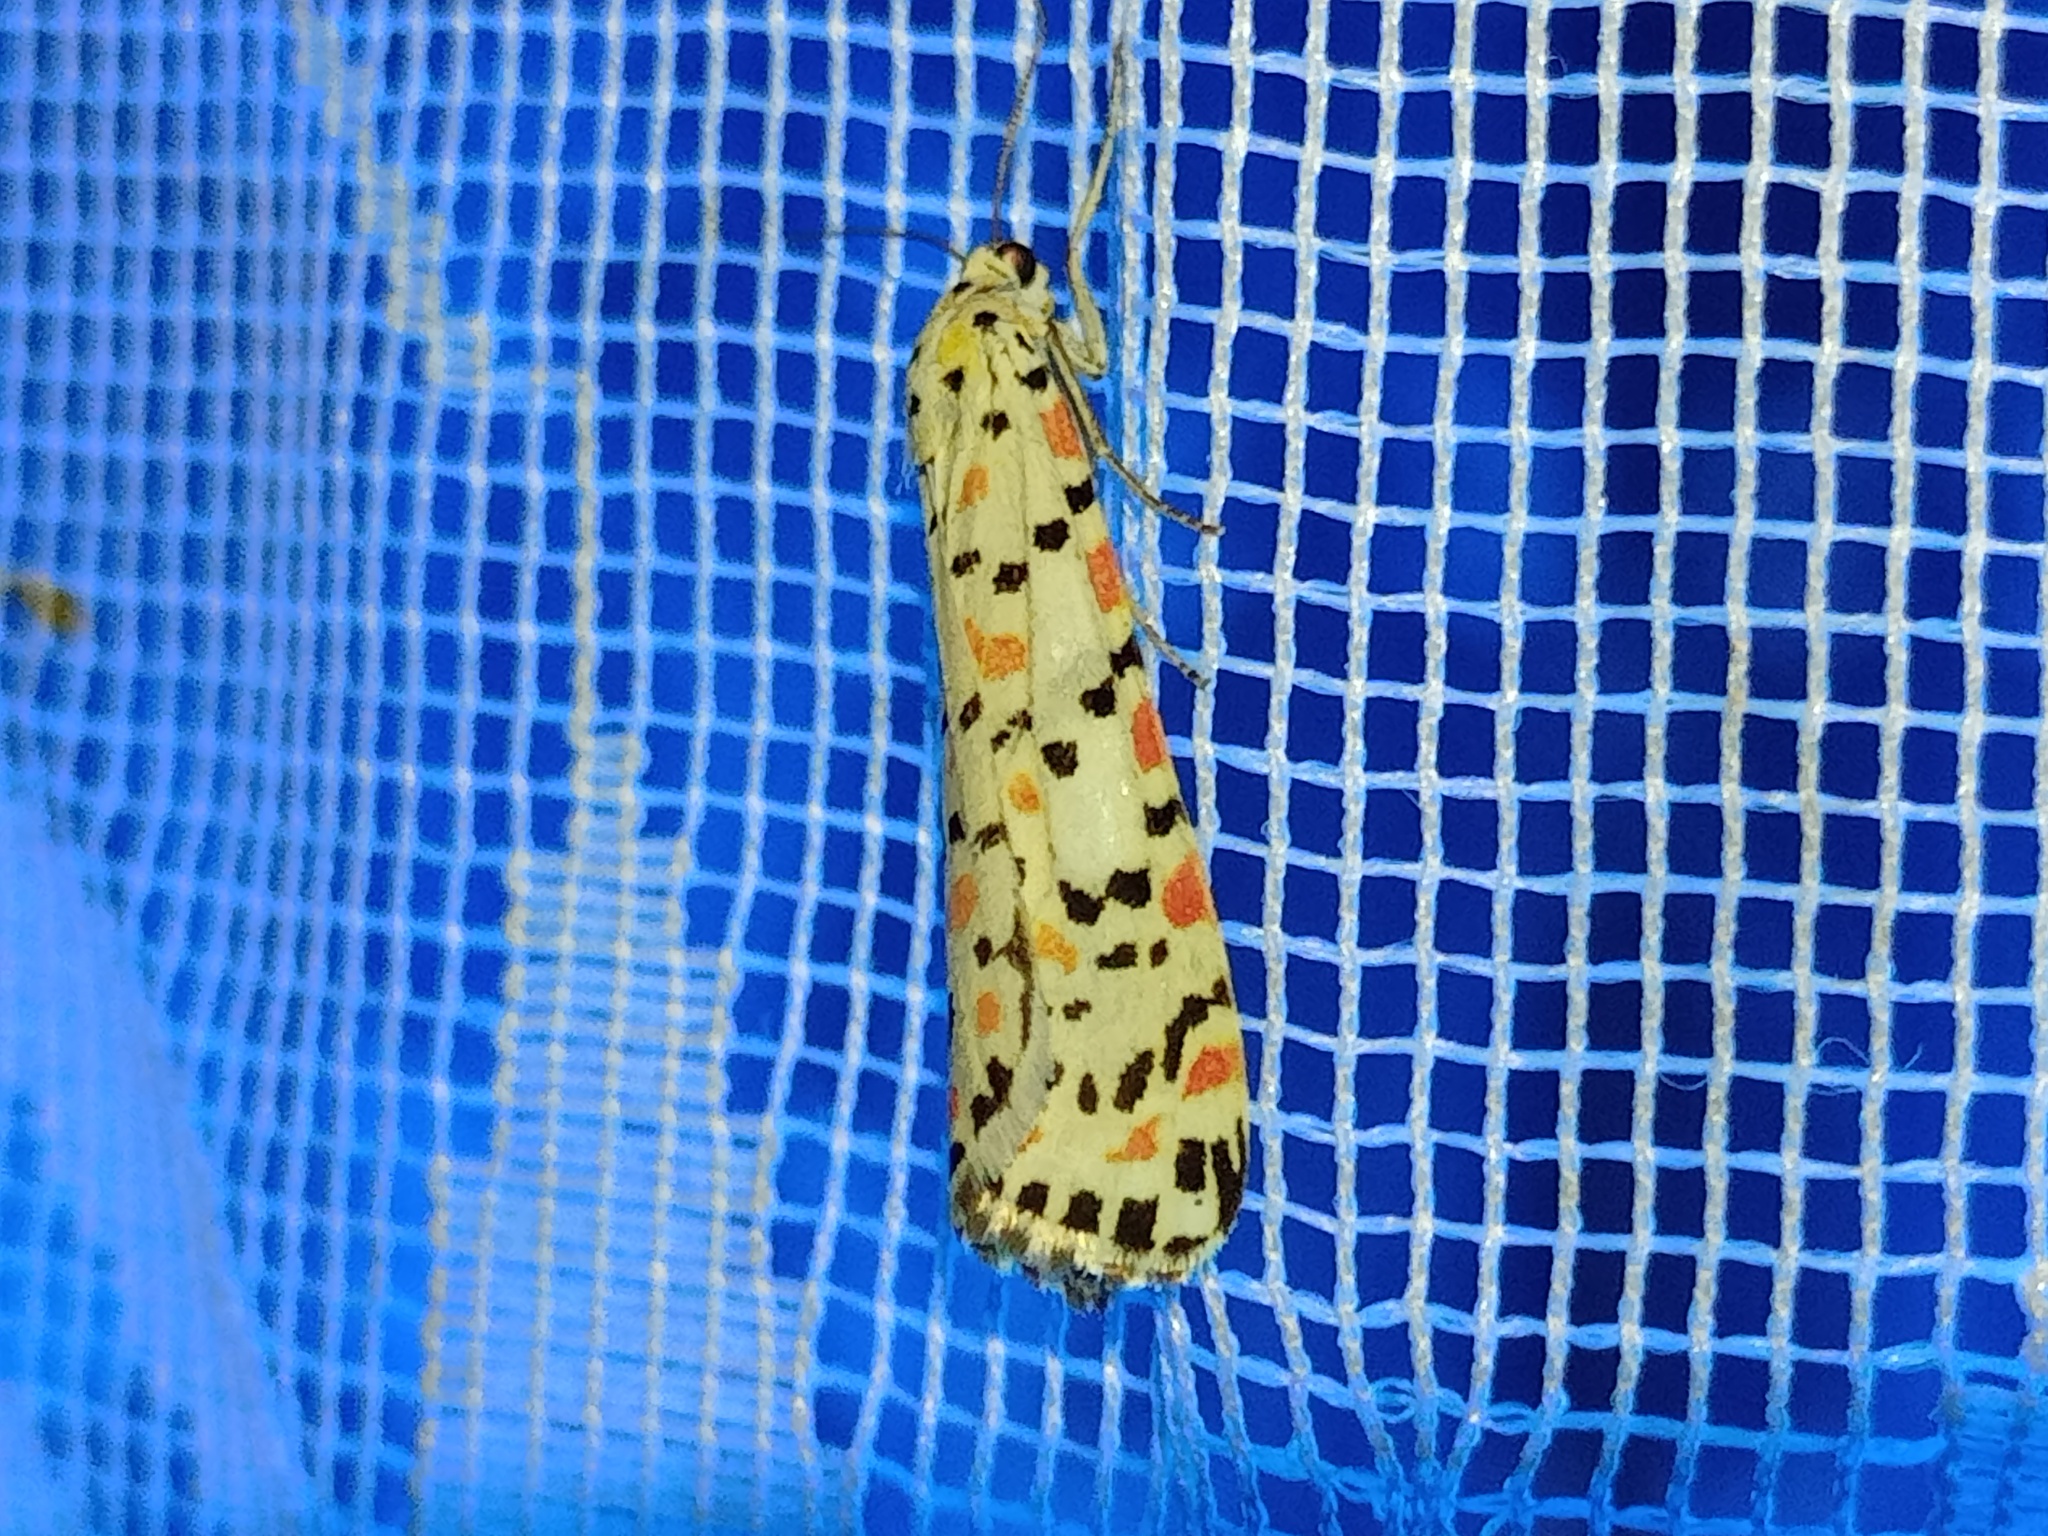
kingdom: Animalia
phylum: Arthropoda
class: Insecta
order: Lepidoptera
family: Erebidae
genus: Utetheisa
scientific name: Utetheisa pulchella
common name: Crimson speckled
